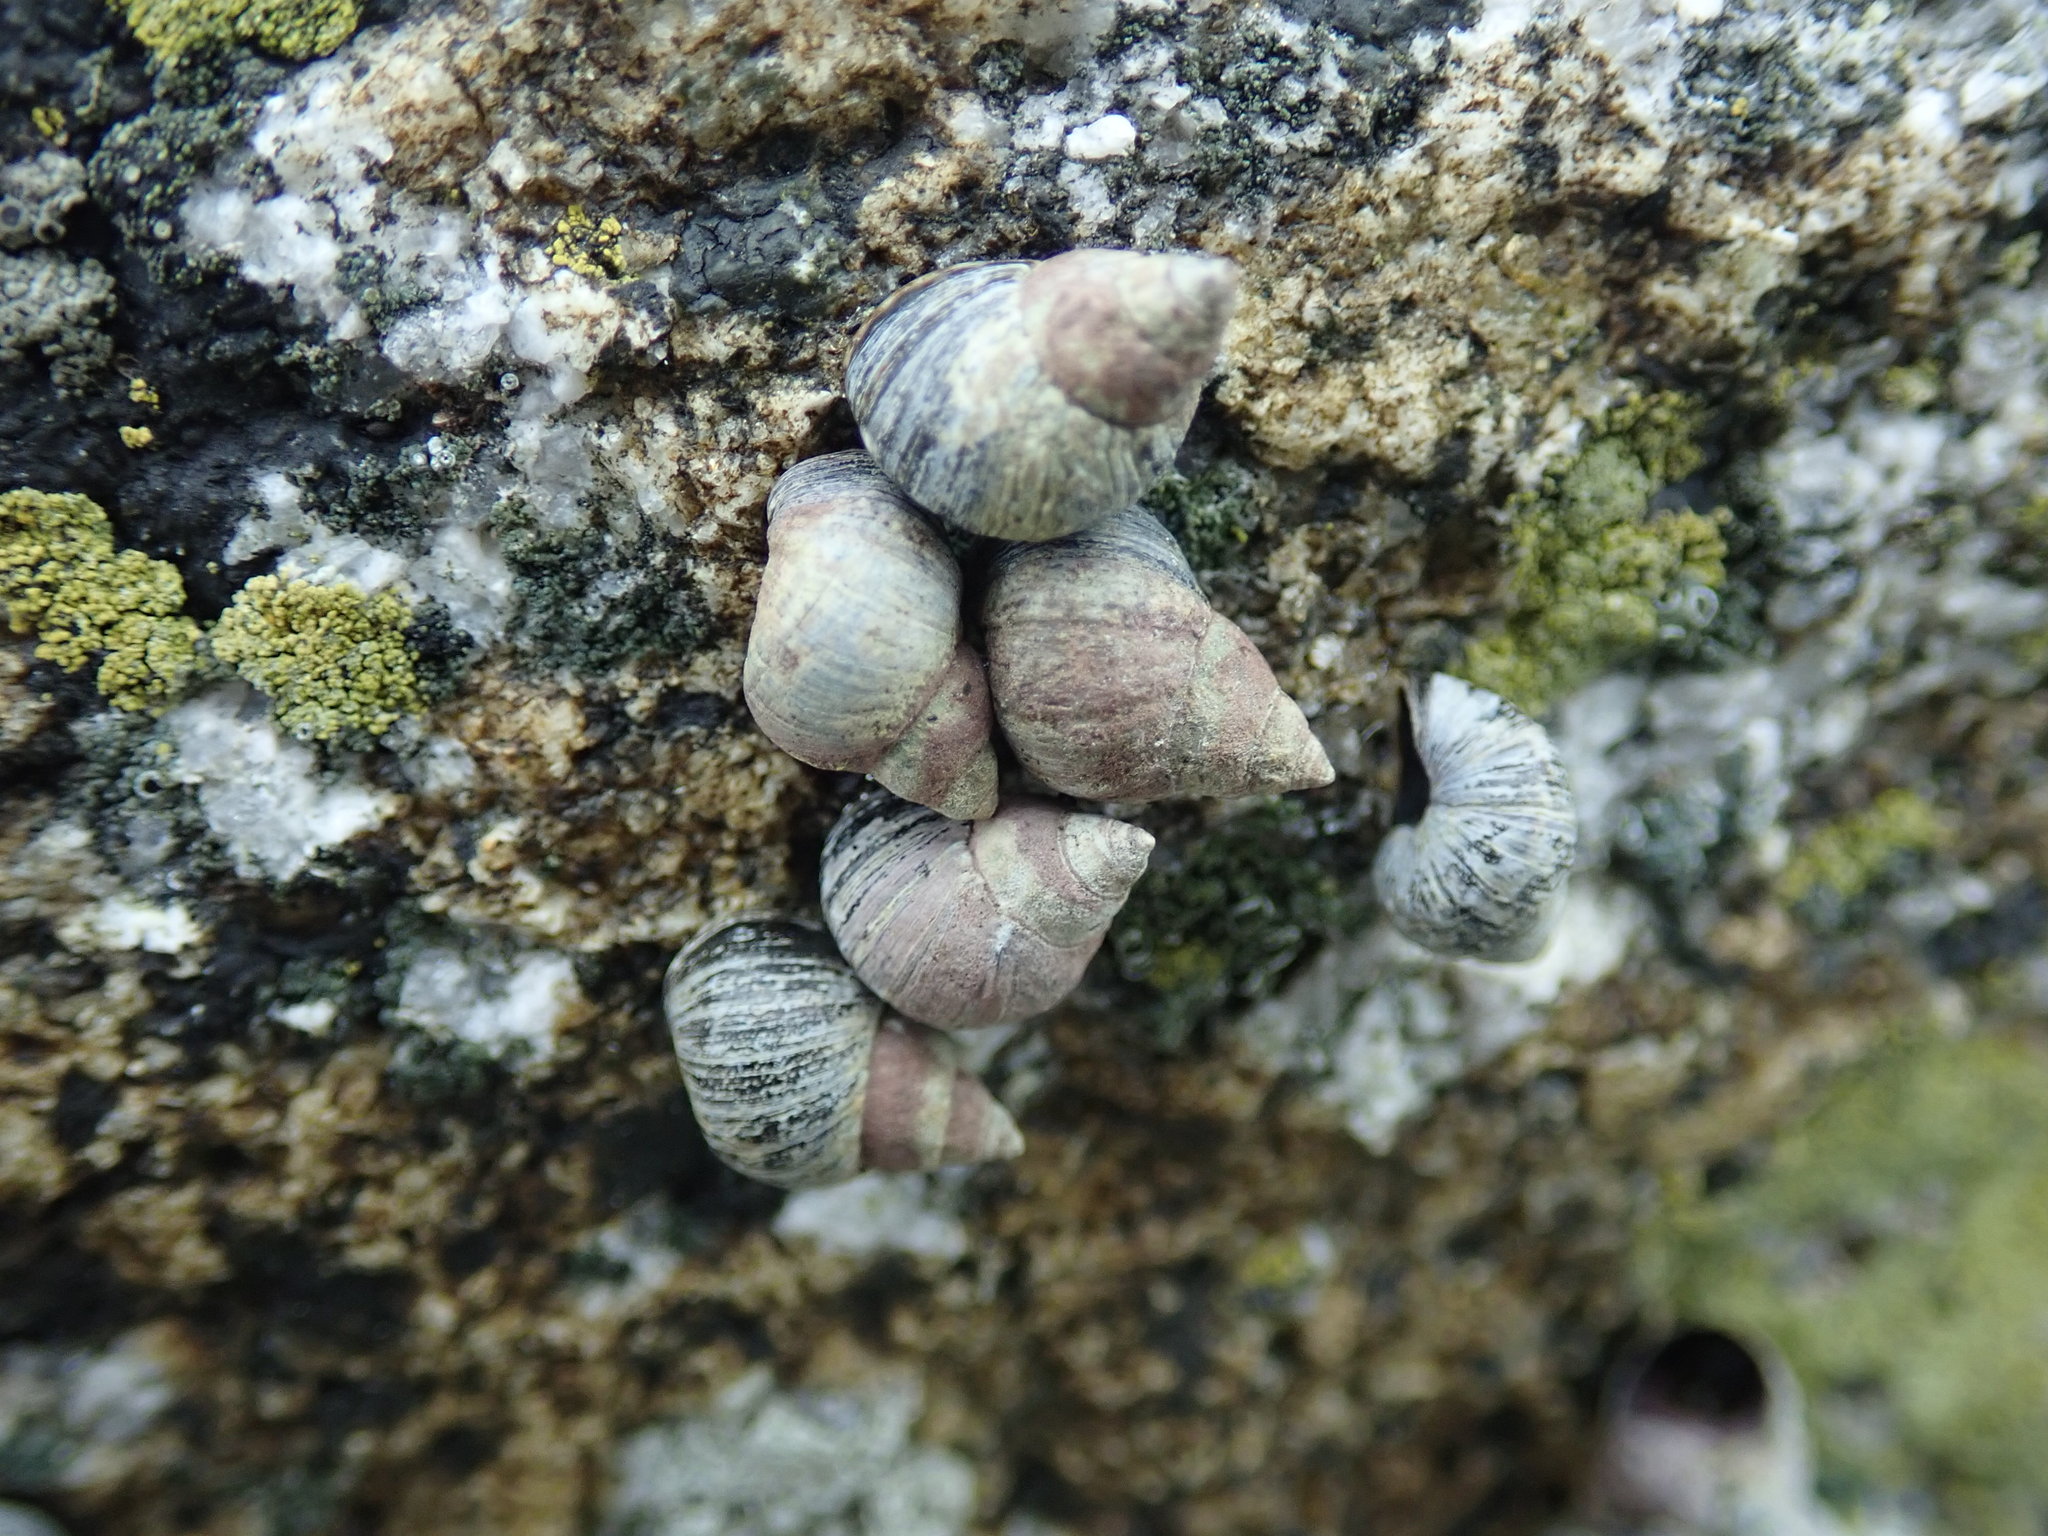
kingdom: Animalia
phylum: Mollusca
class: Gastropoda
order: Littorinimorpha
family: Littorinidae
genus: Littorina
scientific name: Littorina scutulata
